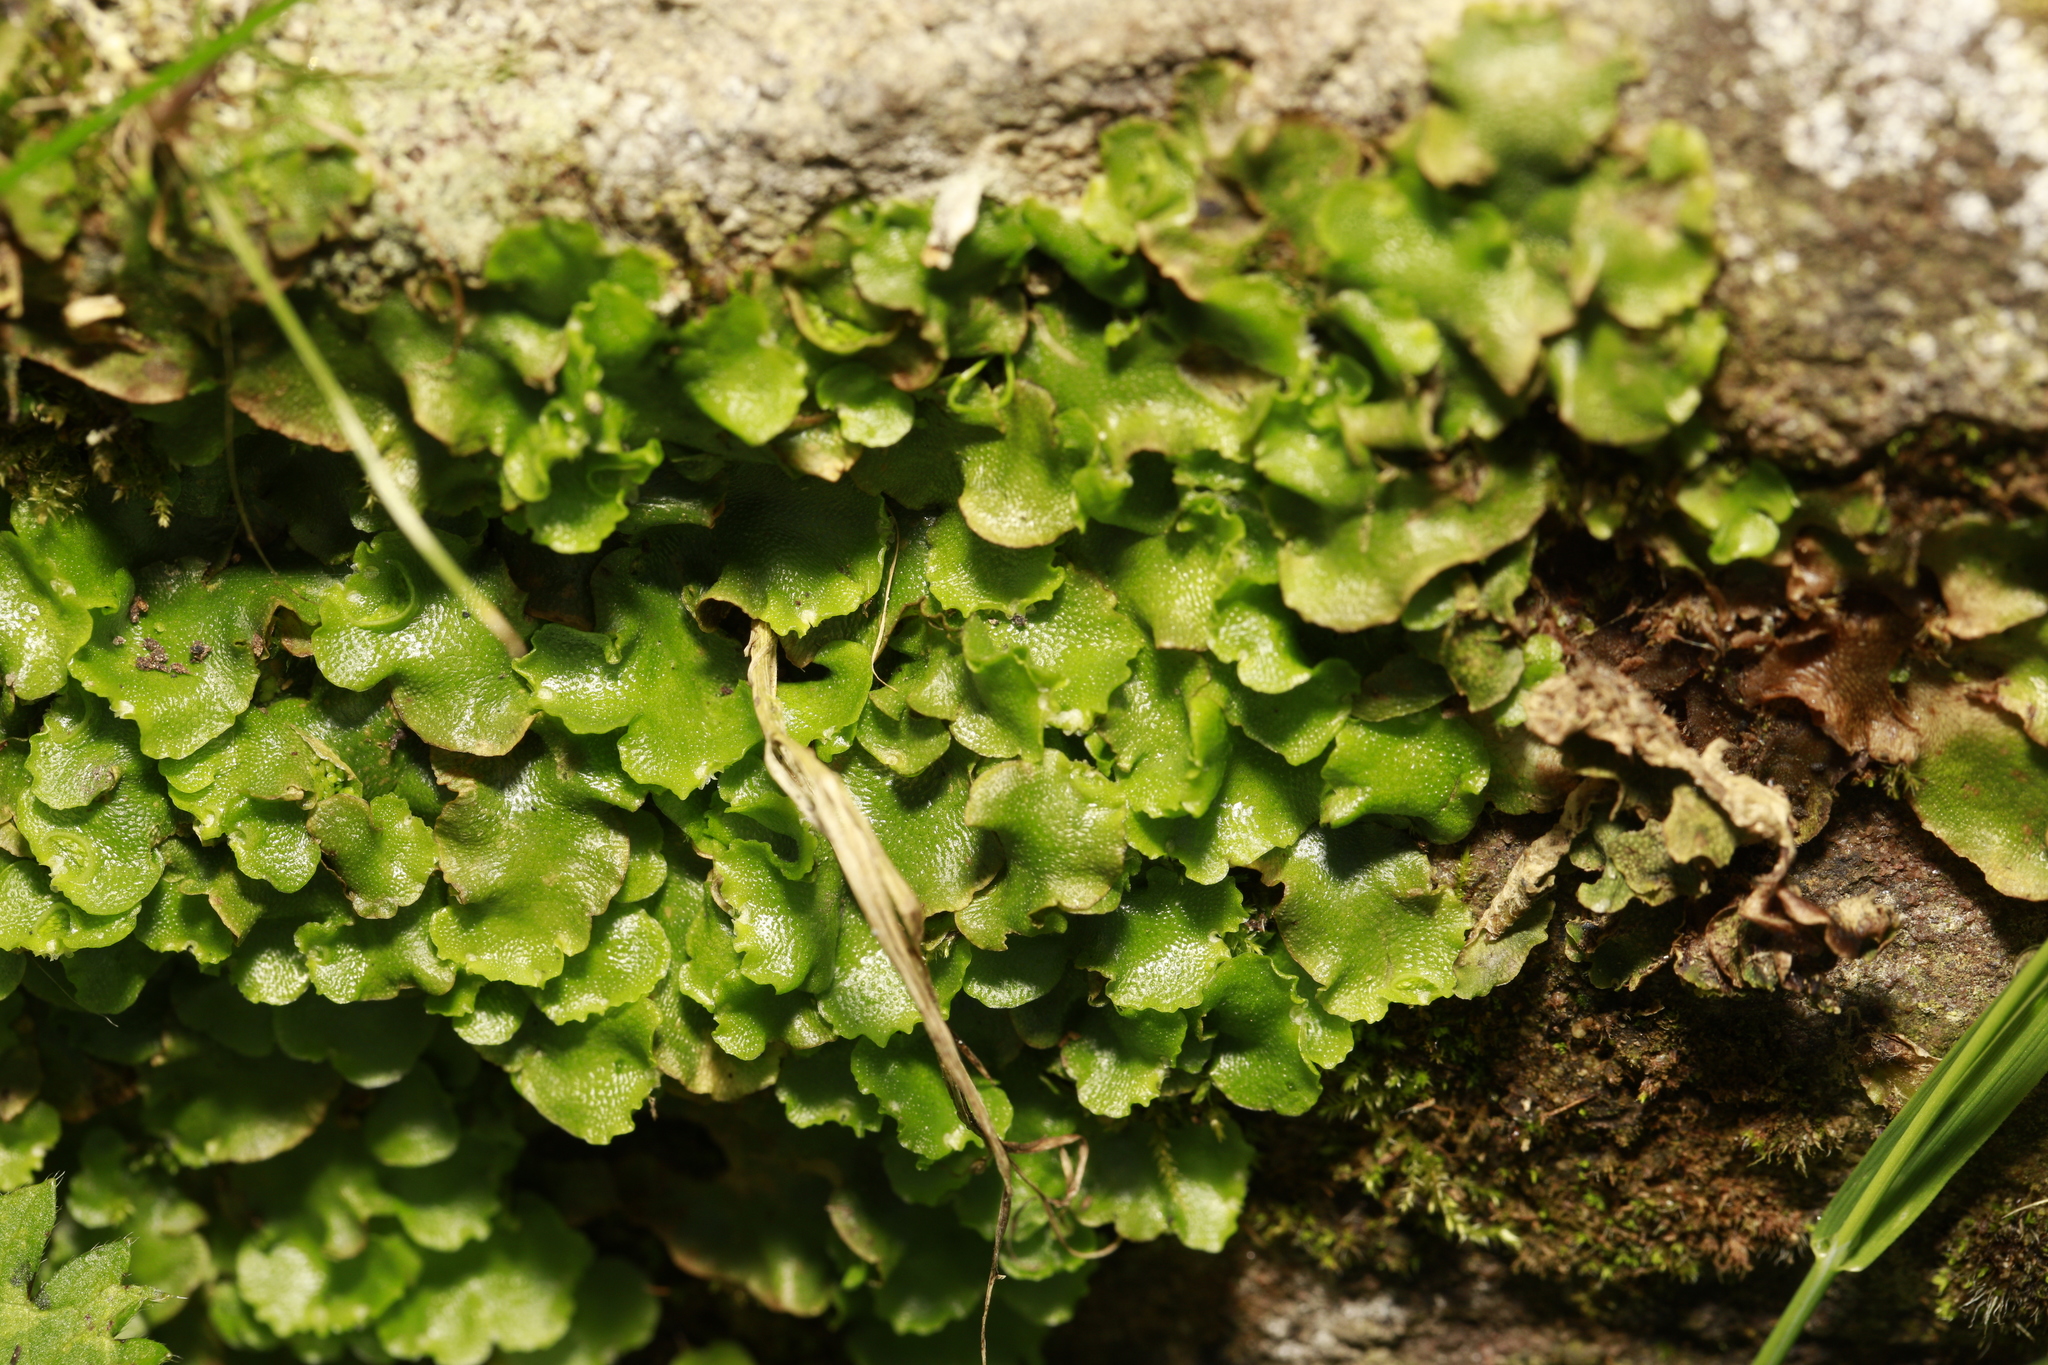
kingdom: Plantae
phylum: Marchantiophyta
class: Marchantiopsida
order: Lunulariales
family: Lunulariaceae
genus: Lunularia
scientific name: Lunularia cruciata
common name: Crescent-cup liverwort
